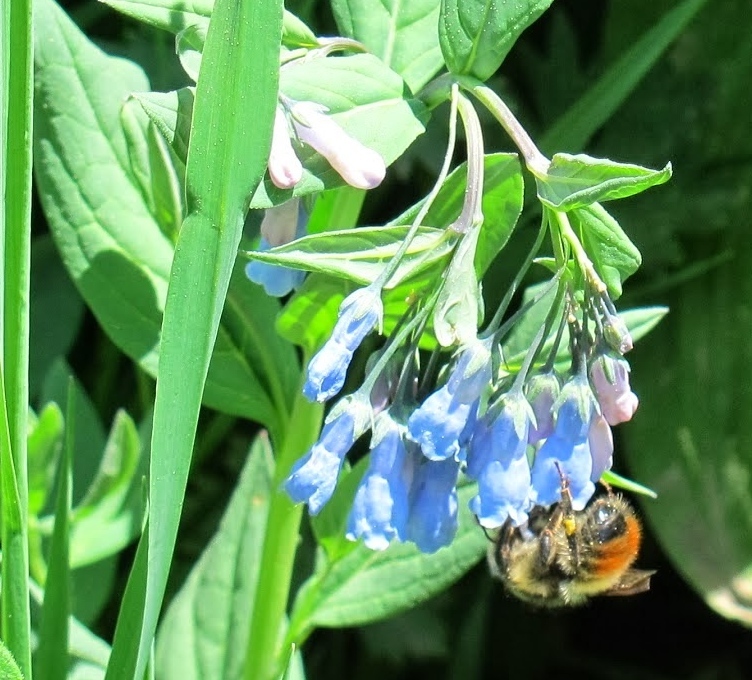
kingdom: Animalia
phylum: Arthropoda
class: Insecta
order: Hymenoptera
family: Apidae
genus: Bombus
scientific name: Bombus flavifrons
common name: Yellow head bumble bee
